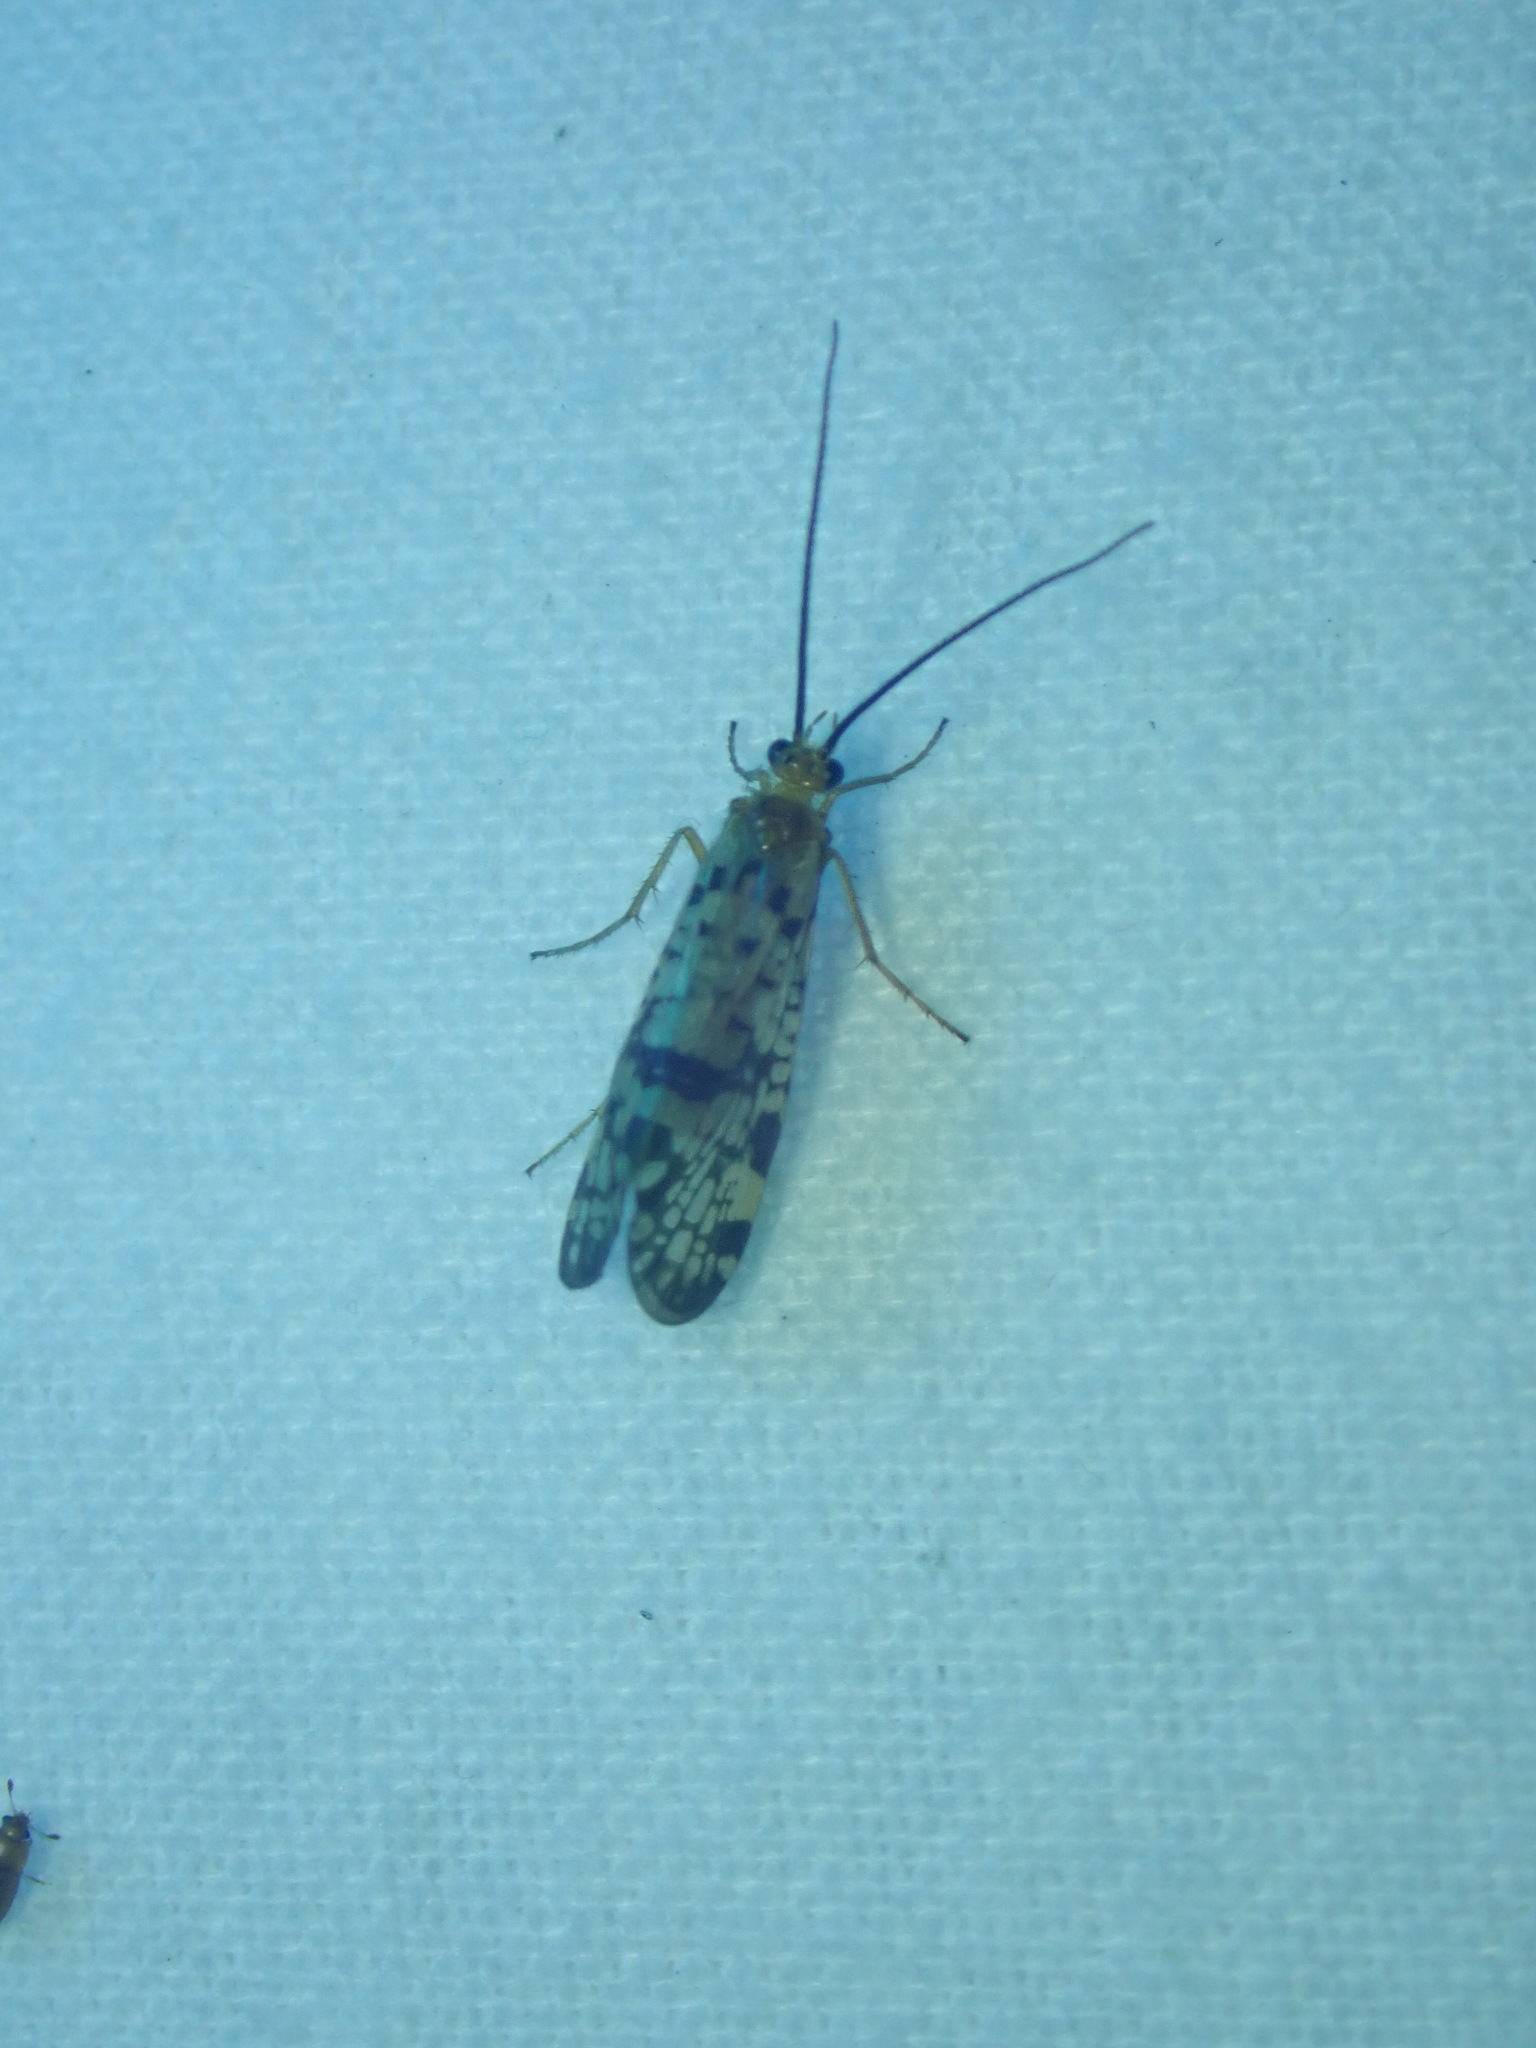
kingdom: Animalia
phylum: Arthropoda
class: Insecta
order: Trichoptera
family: Phryganeidae
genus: Banksiola
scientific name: Banksiola dossuaria
